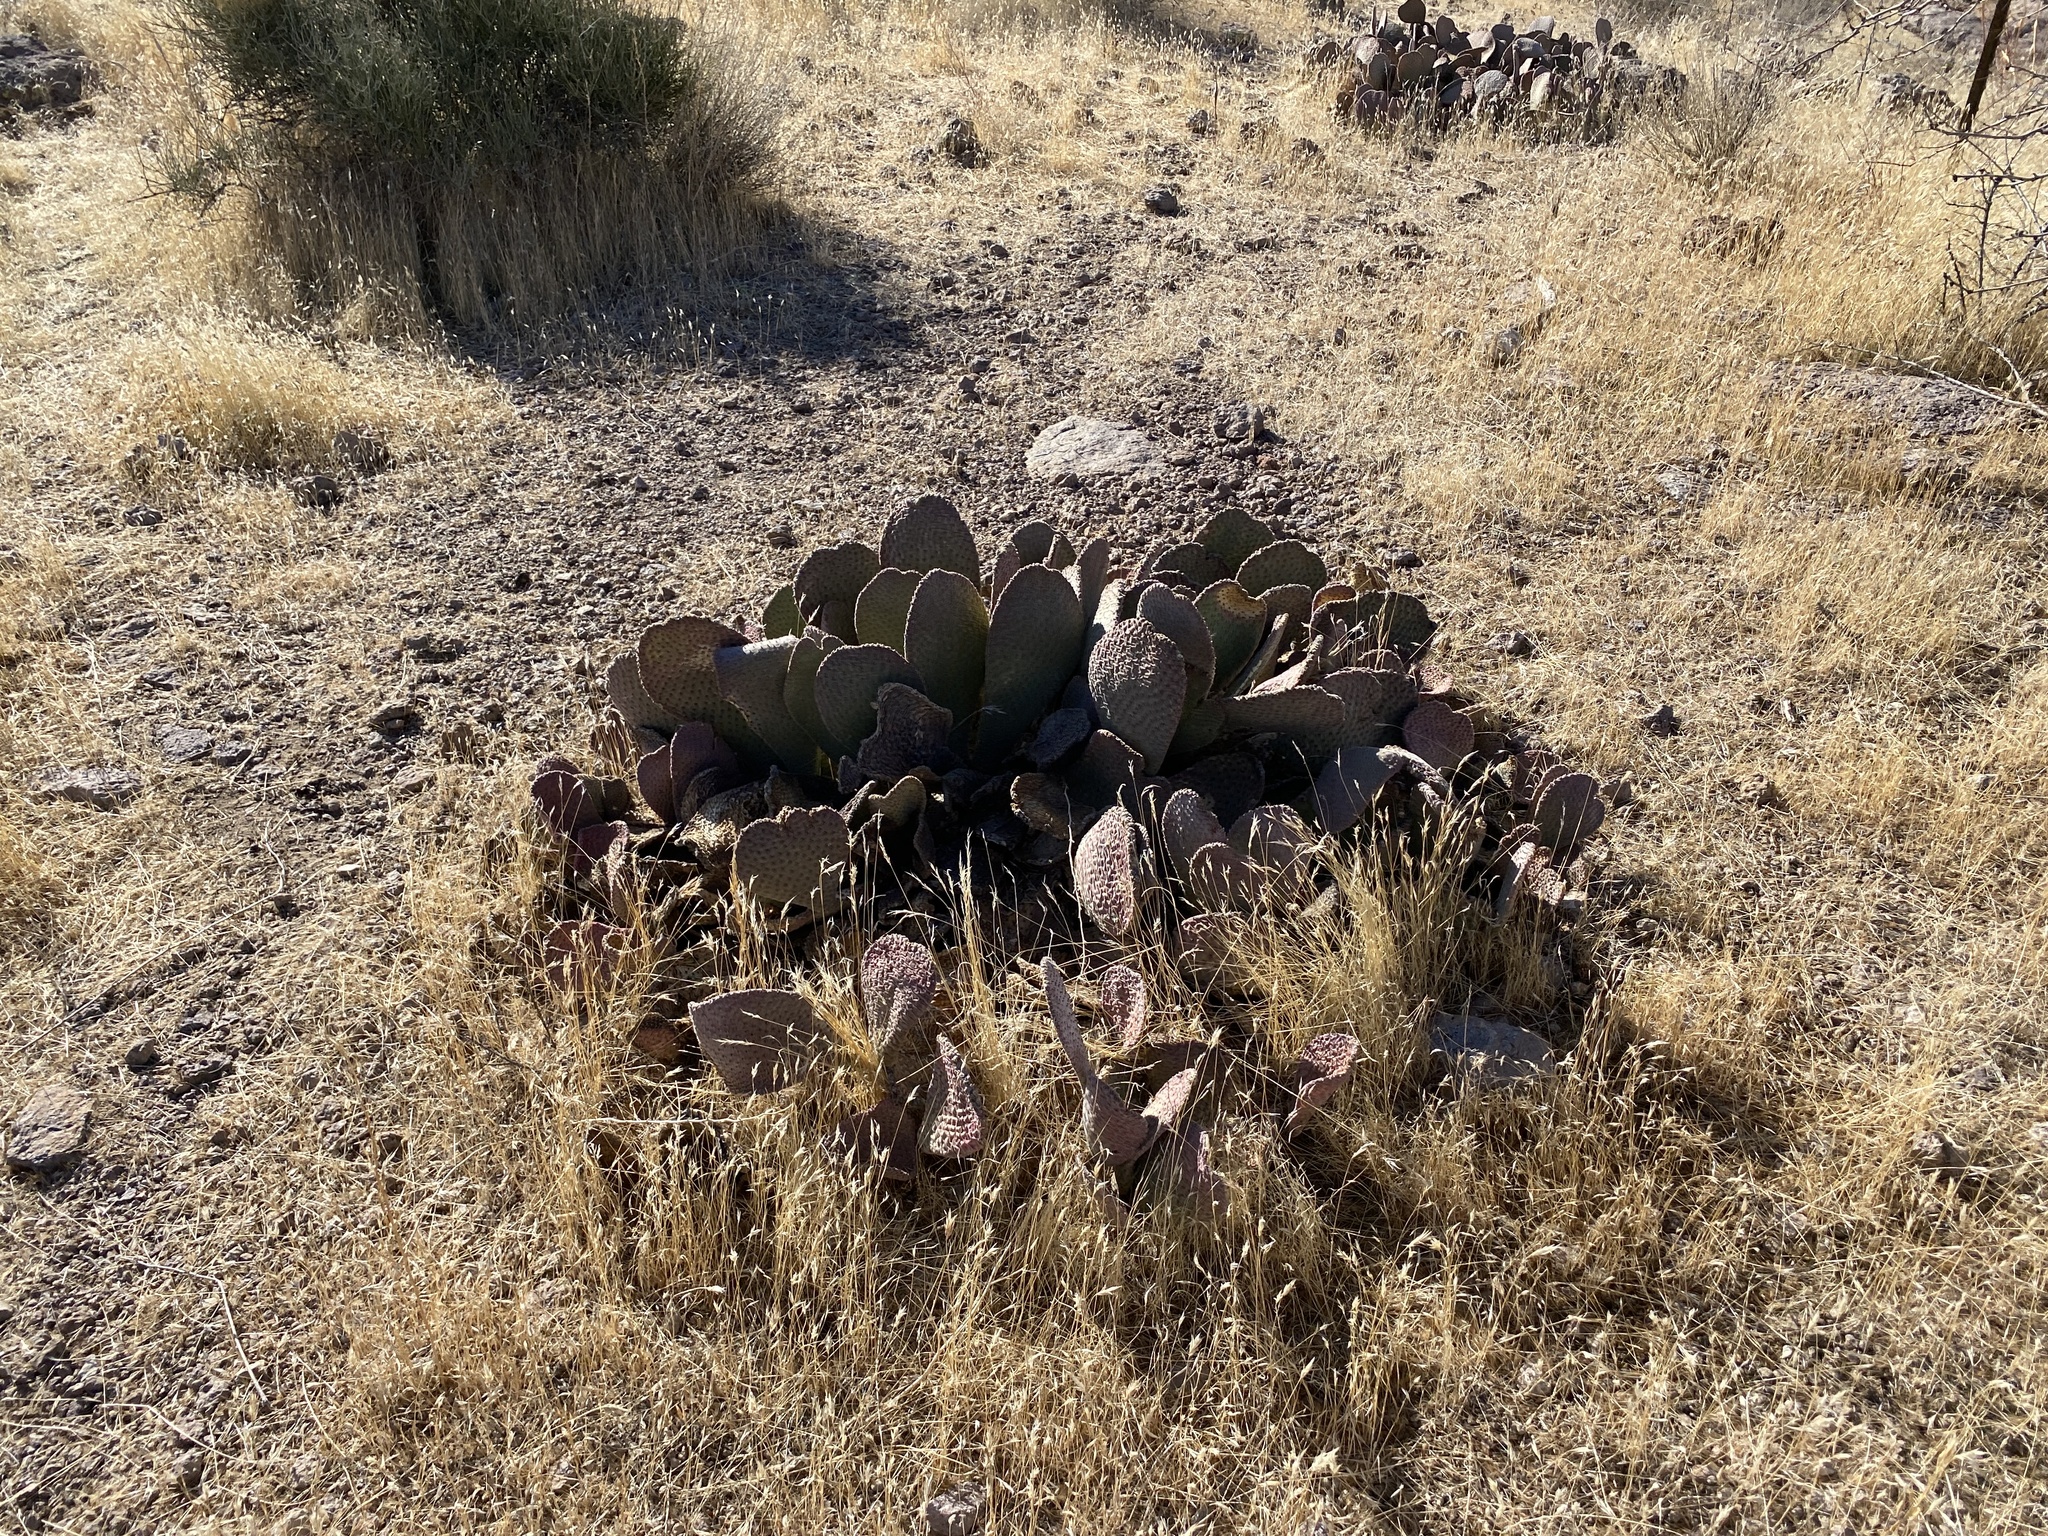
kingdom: Plantae
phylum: Tracheophyta
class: Magnoliopsida
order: Caryophyllales
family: Cactaceae
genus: Opuntia
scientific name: Opuntia basilaris
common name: Beavertail prickly-pear
